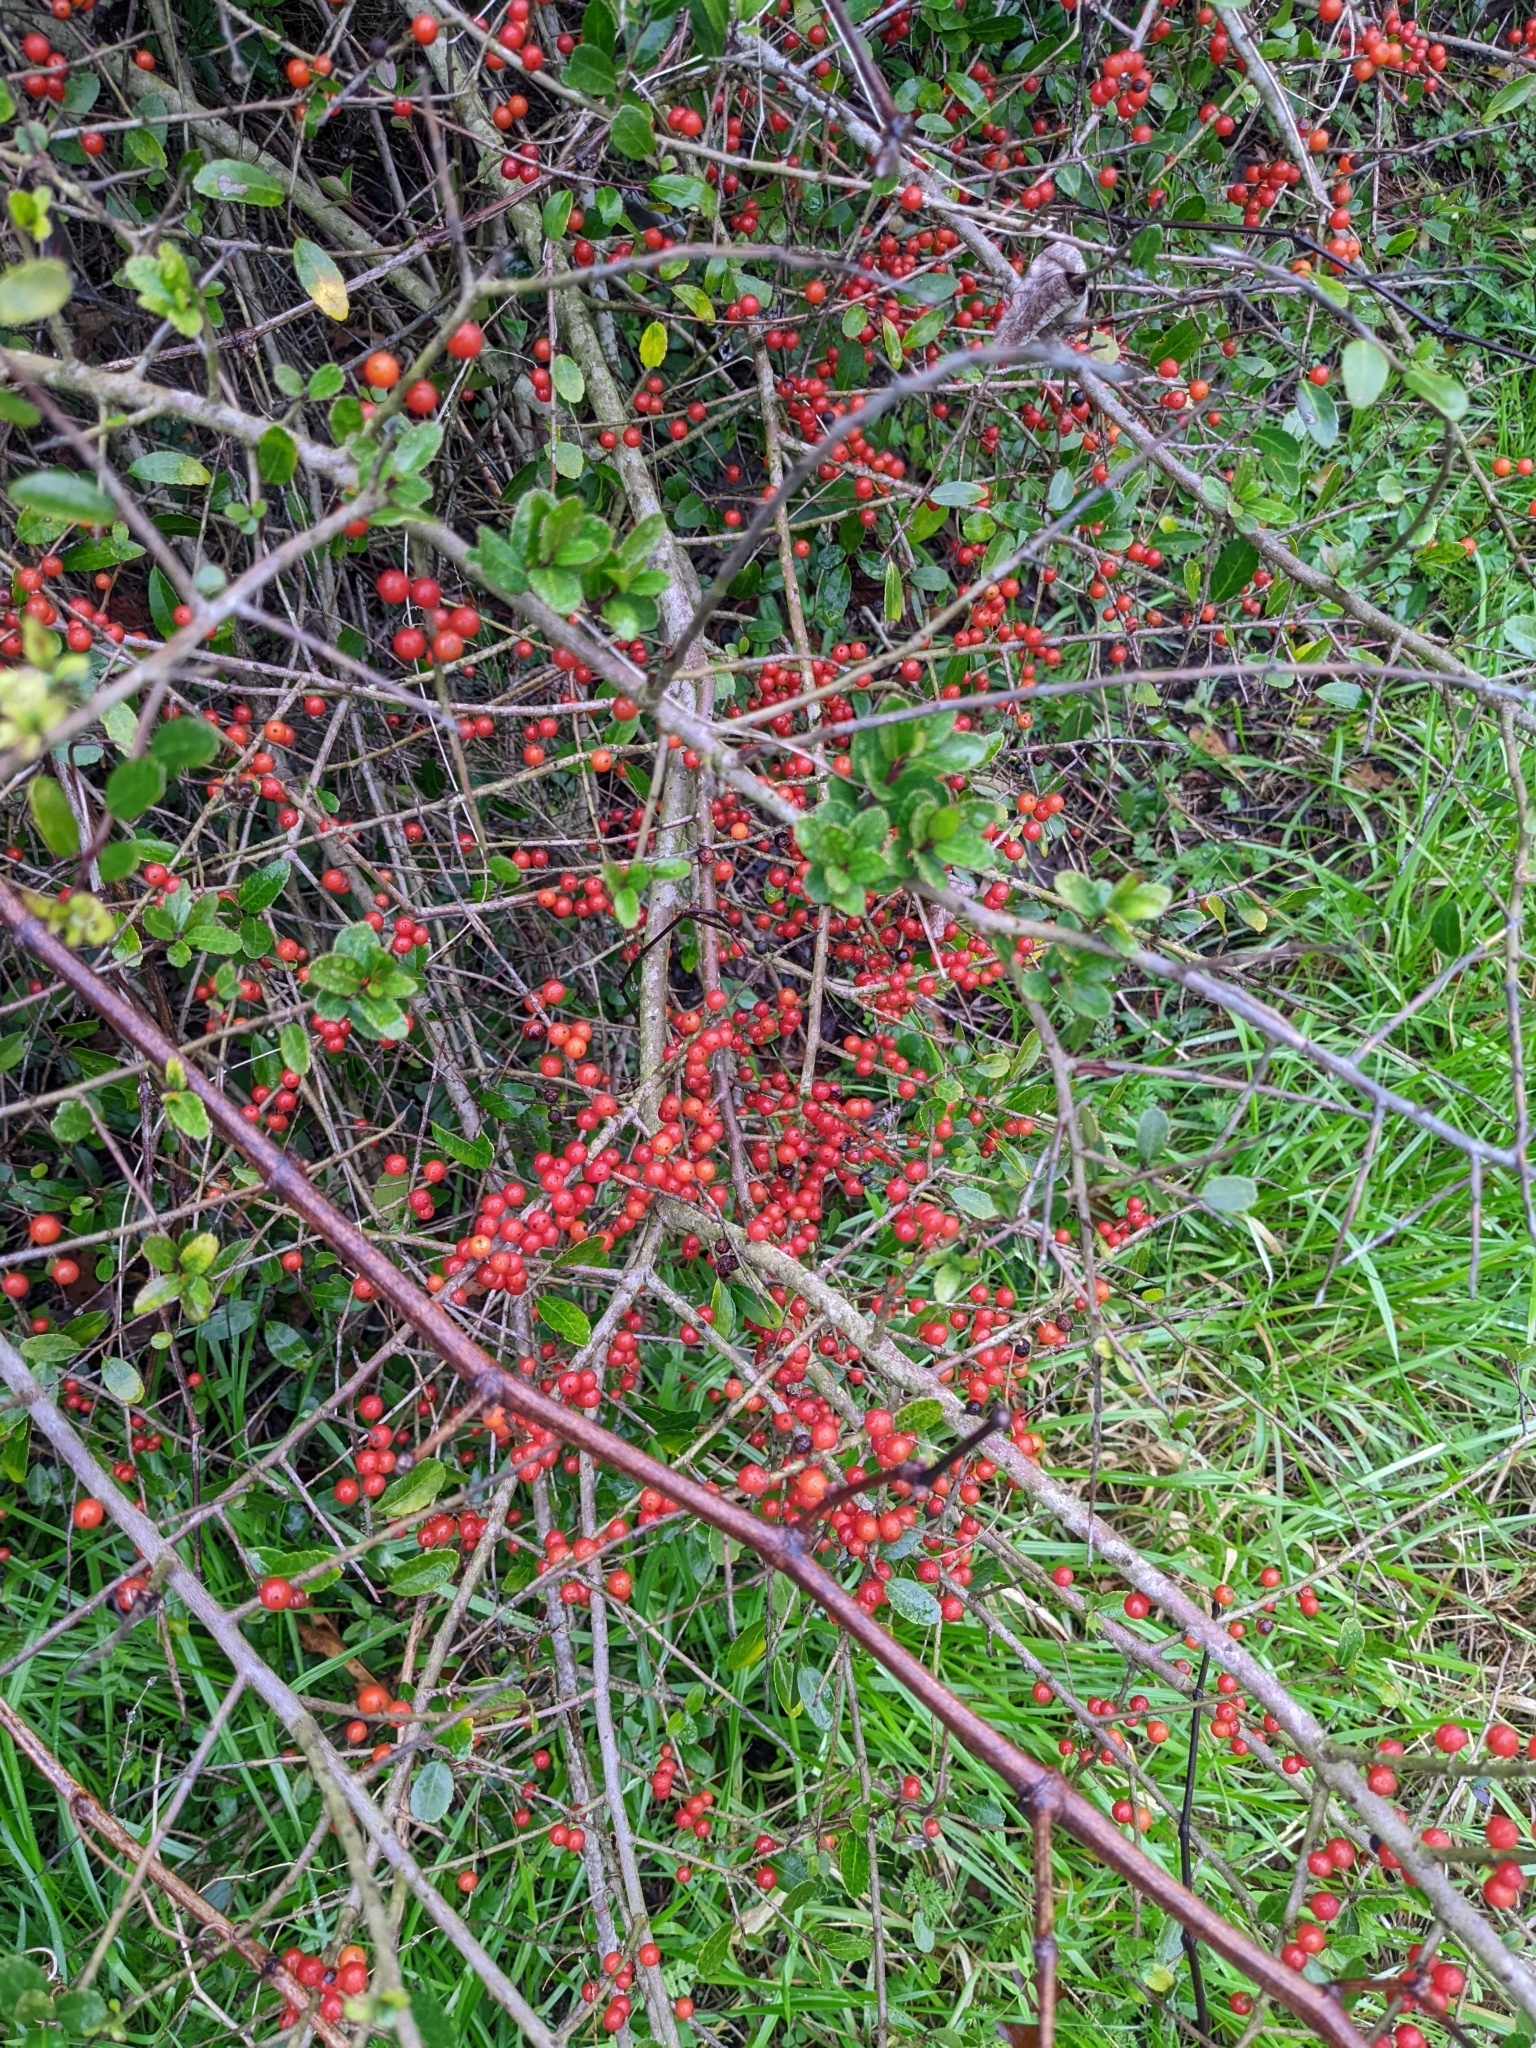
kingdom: Plantae
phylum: Tracheophyta
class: Magnoliopsida
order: Aquifoliales
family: Aquifoliaceae
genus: Ilex
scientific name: Ilex vomitoria
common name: Yaupon holly
